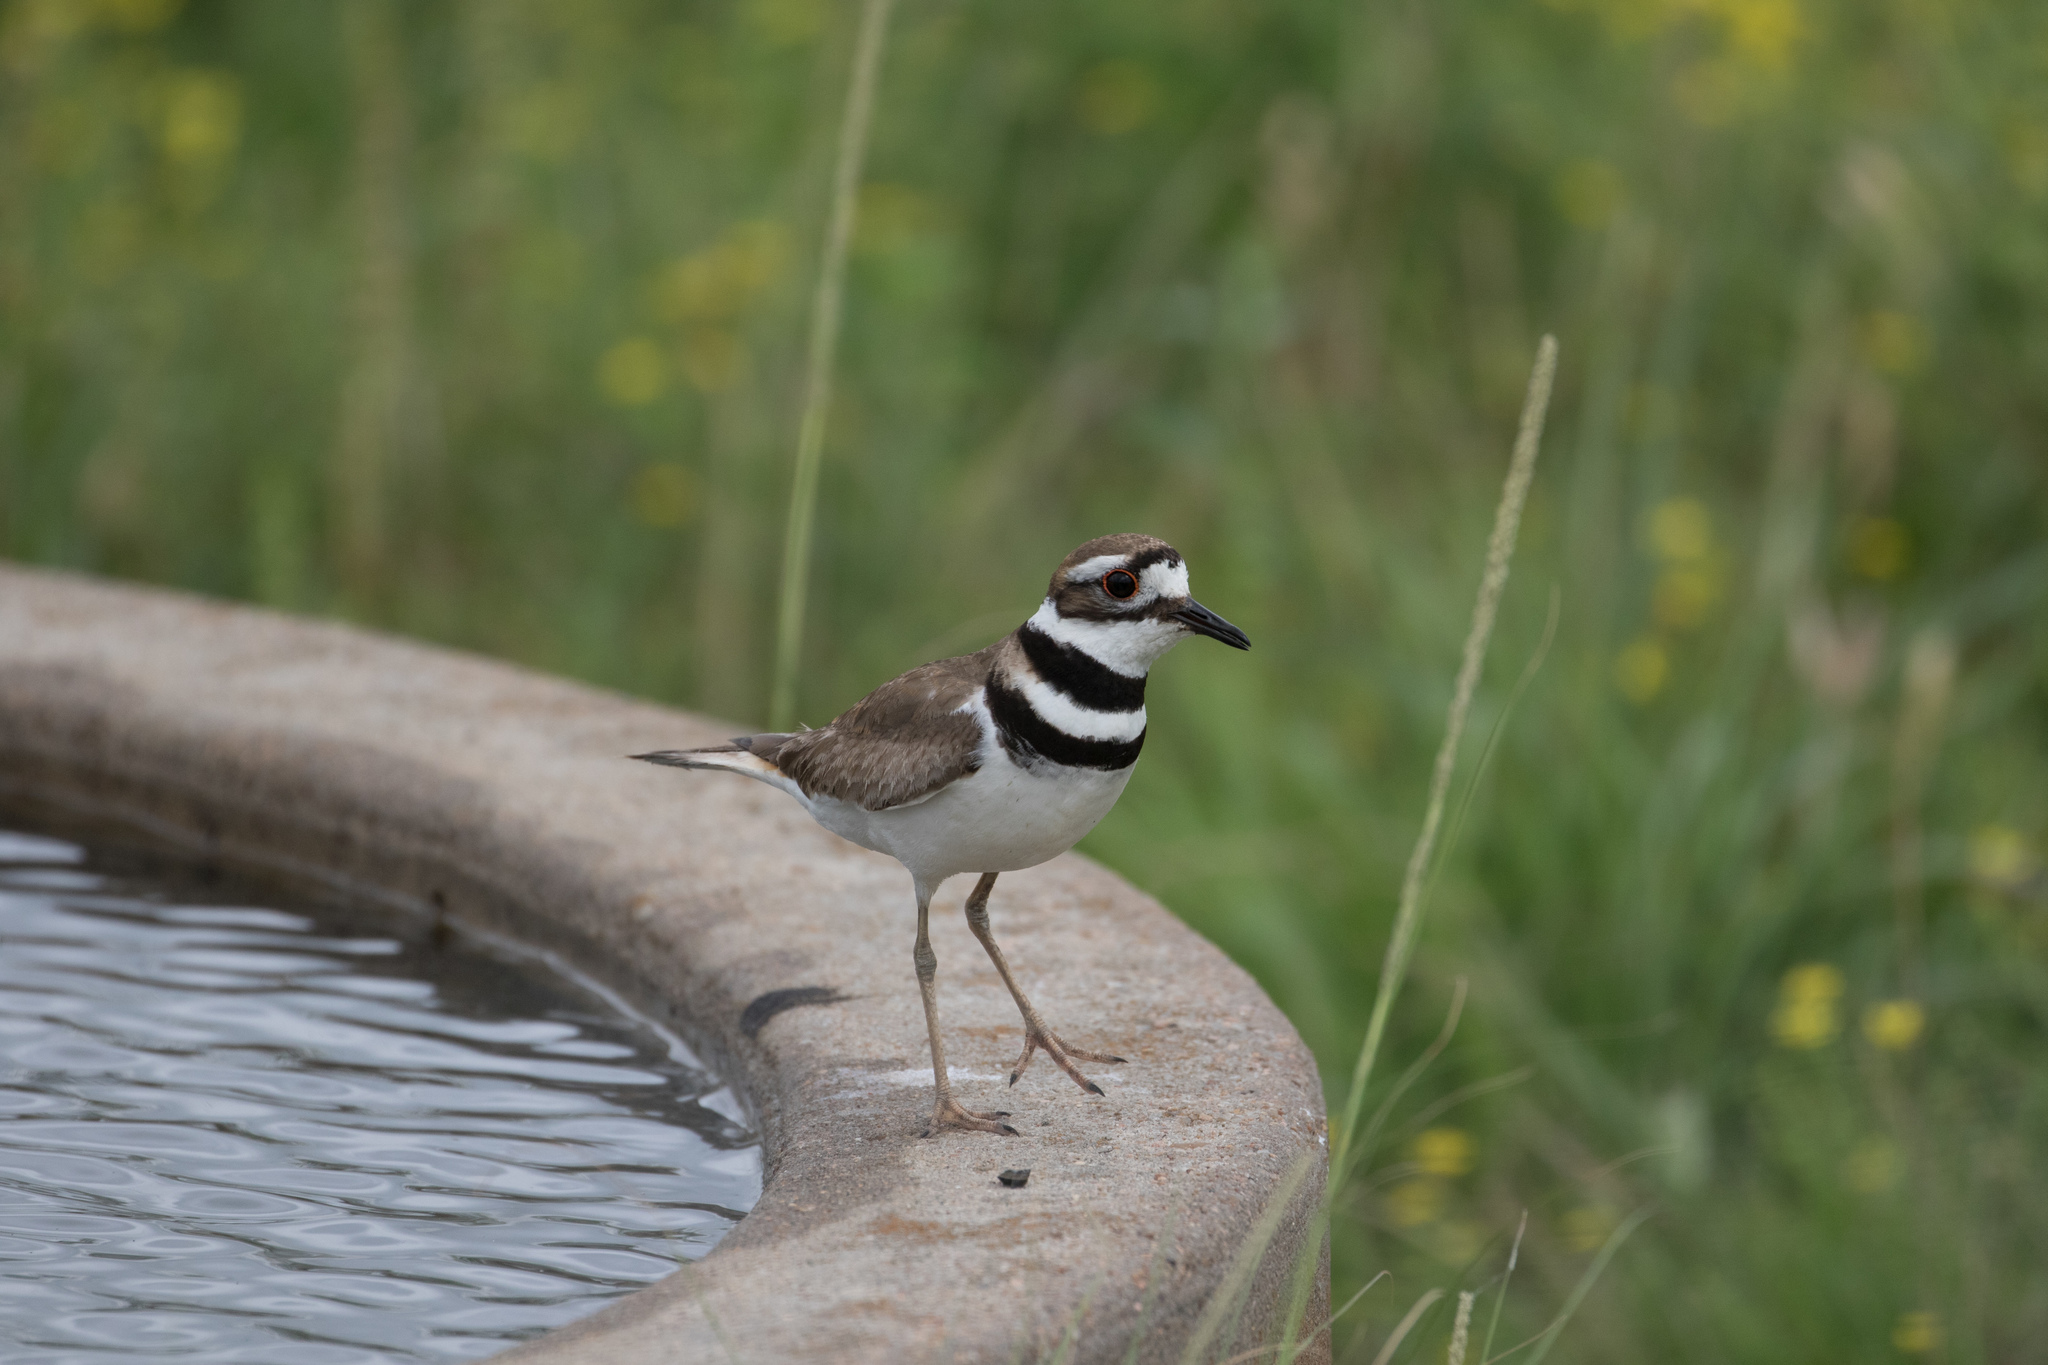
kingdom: Animalia
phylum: Chordata
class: Aves
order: Charadriiformes
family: Charadriidae
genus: Charadrius
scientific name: Charadrius vociferus
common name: Killdeer
